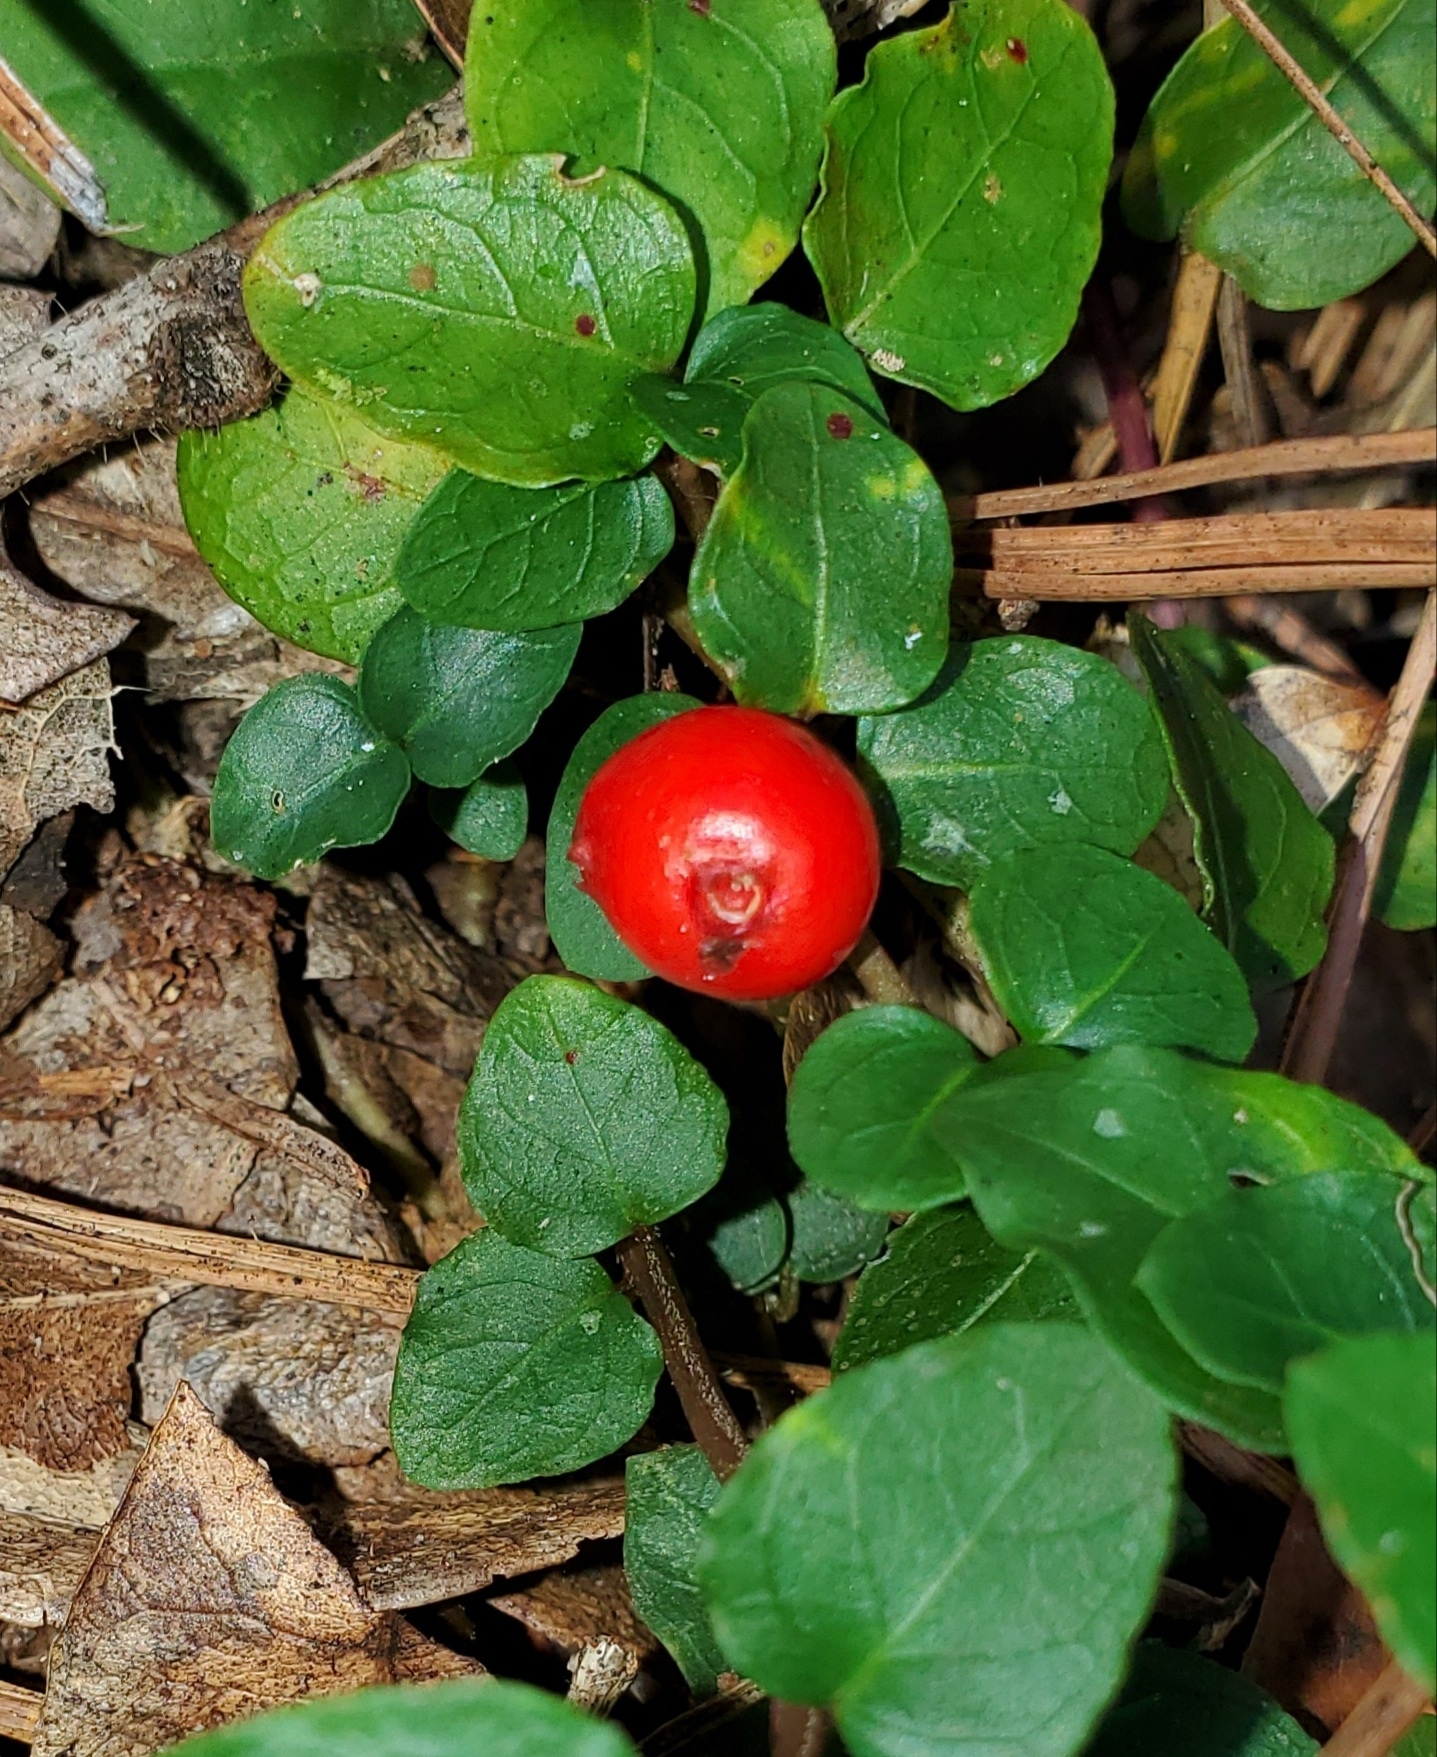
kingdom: Plantae
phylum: Tracheophyta
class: Magnoliopsida
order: Gentianales
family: Rubiaceae
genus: Mitchella
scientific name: Mitchella repens
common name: Partridge-berry
